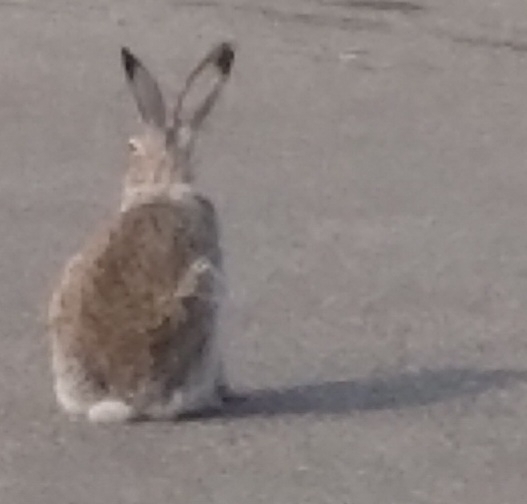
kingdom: Animalia
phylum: Chordata
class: Mammalia
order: Lagomorpha
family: Leporidae
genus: Lepus
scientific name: Lepus townsendii
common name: White-tailed jackrabbit
